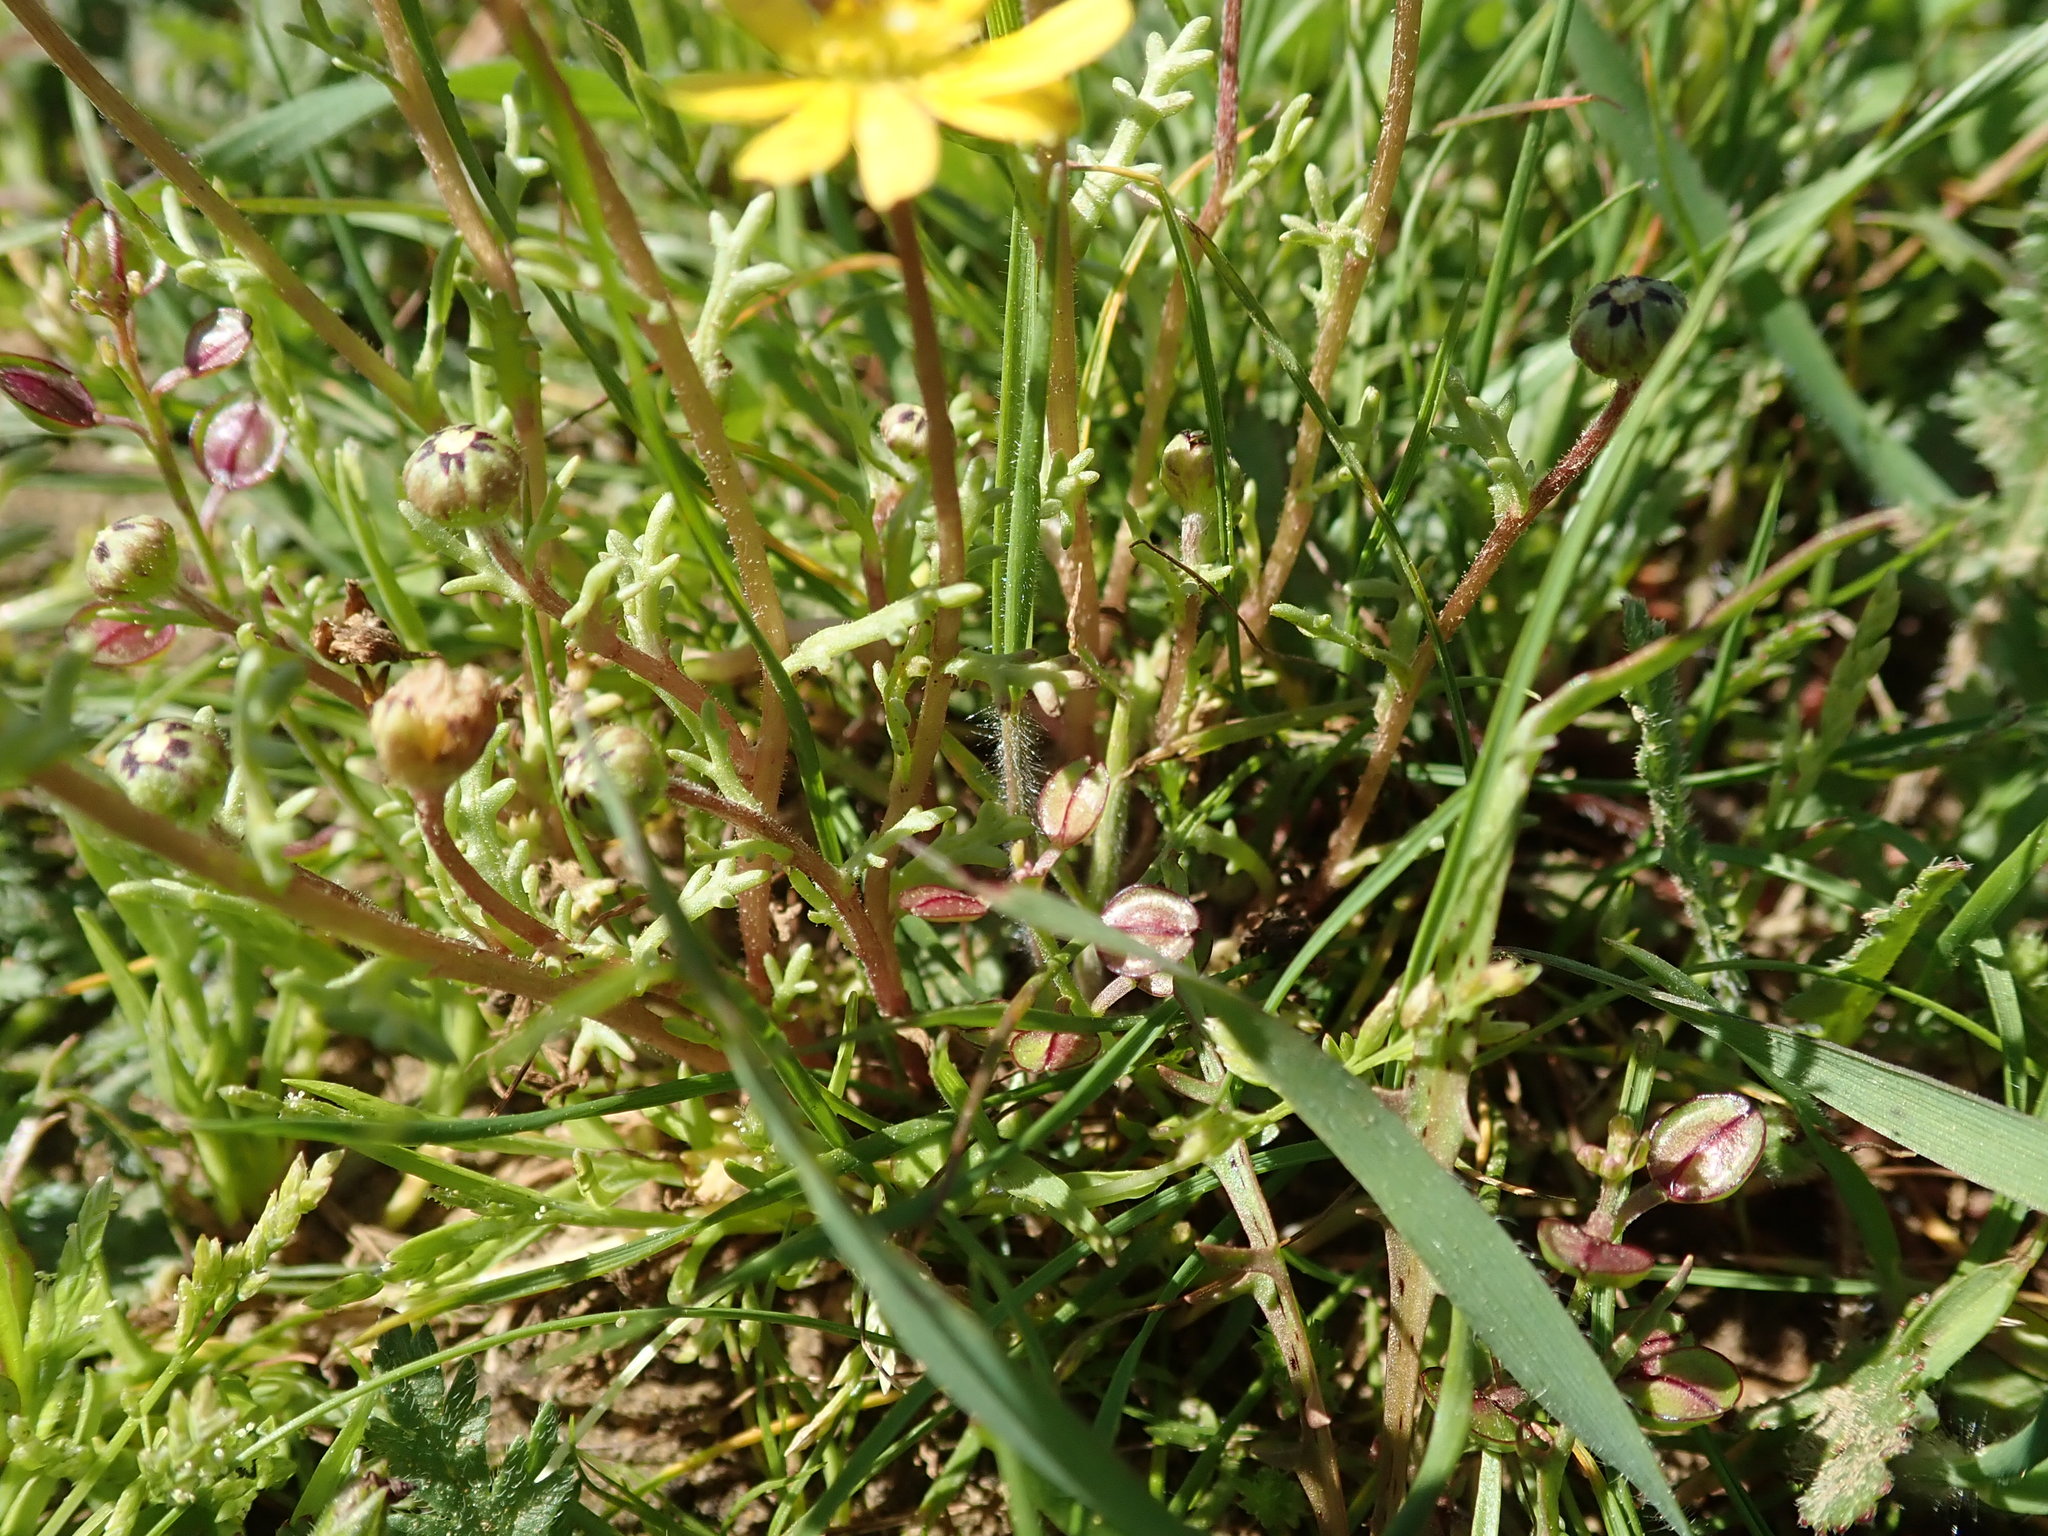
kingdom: Plantae
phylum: Tracheophyta
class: Magnoliopsida
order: Asterales
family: Asteraceae
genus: Blennosperma
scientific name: Blennosperma nanum
